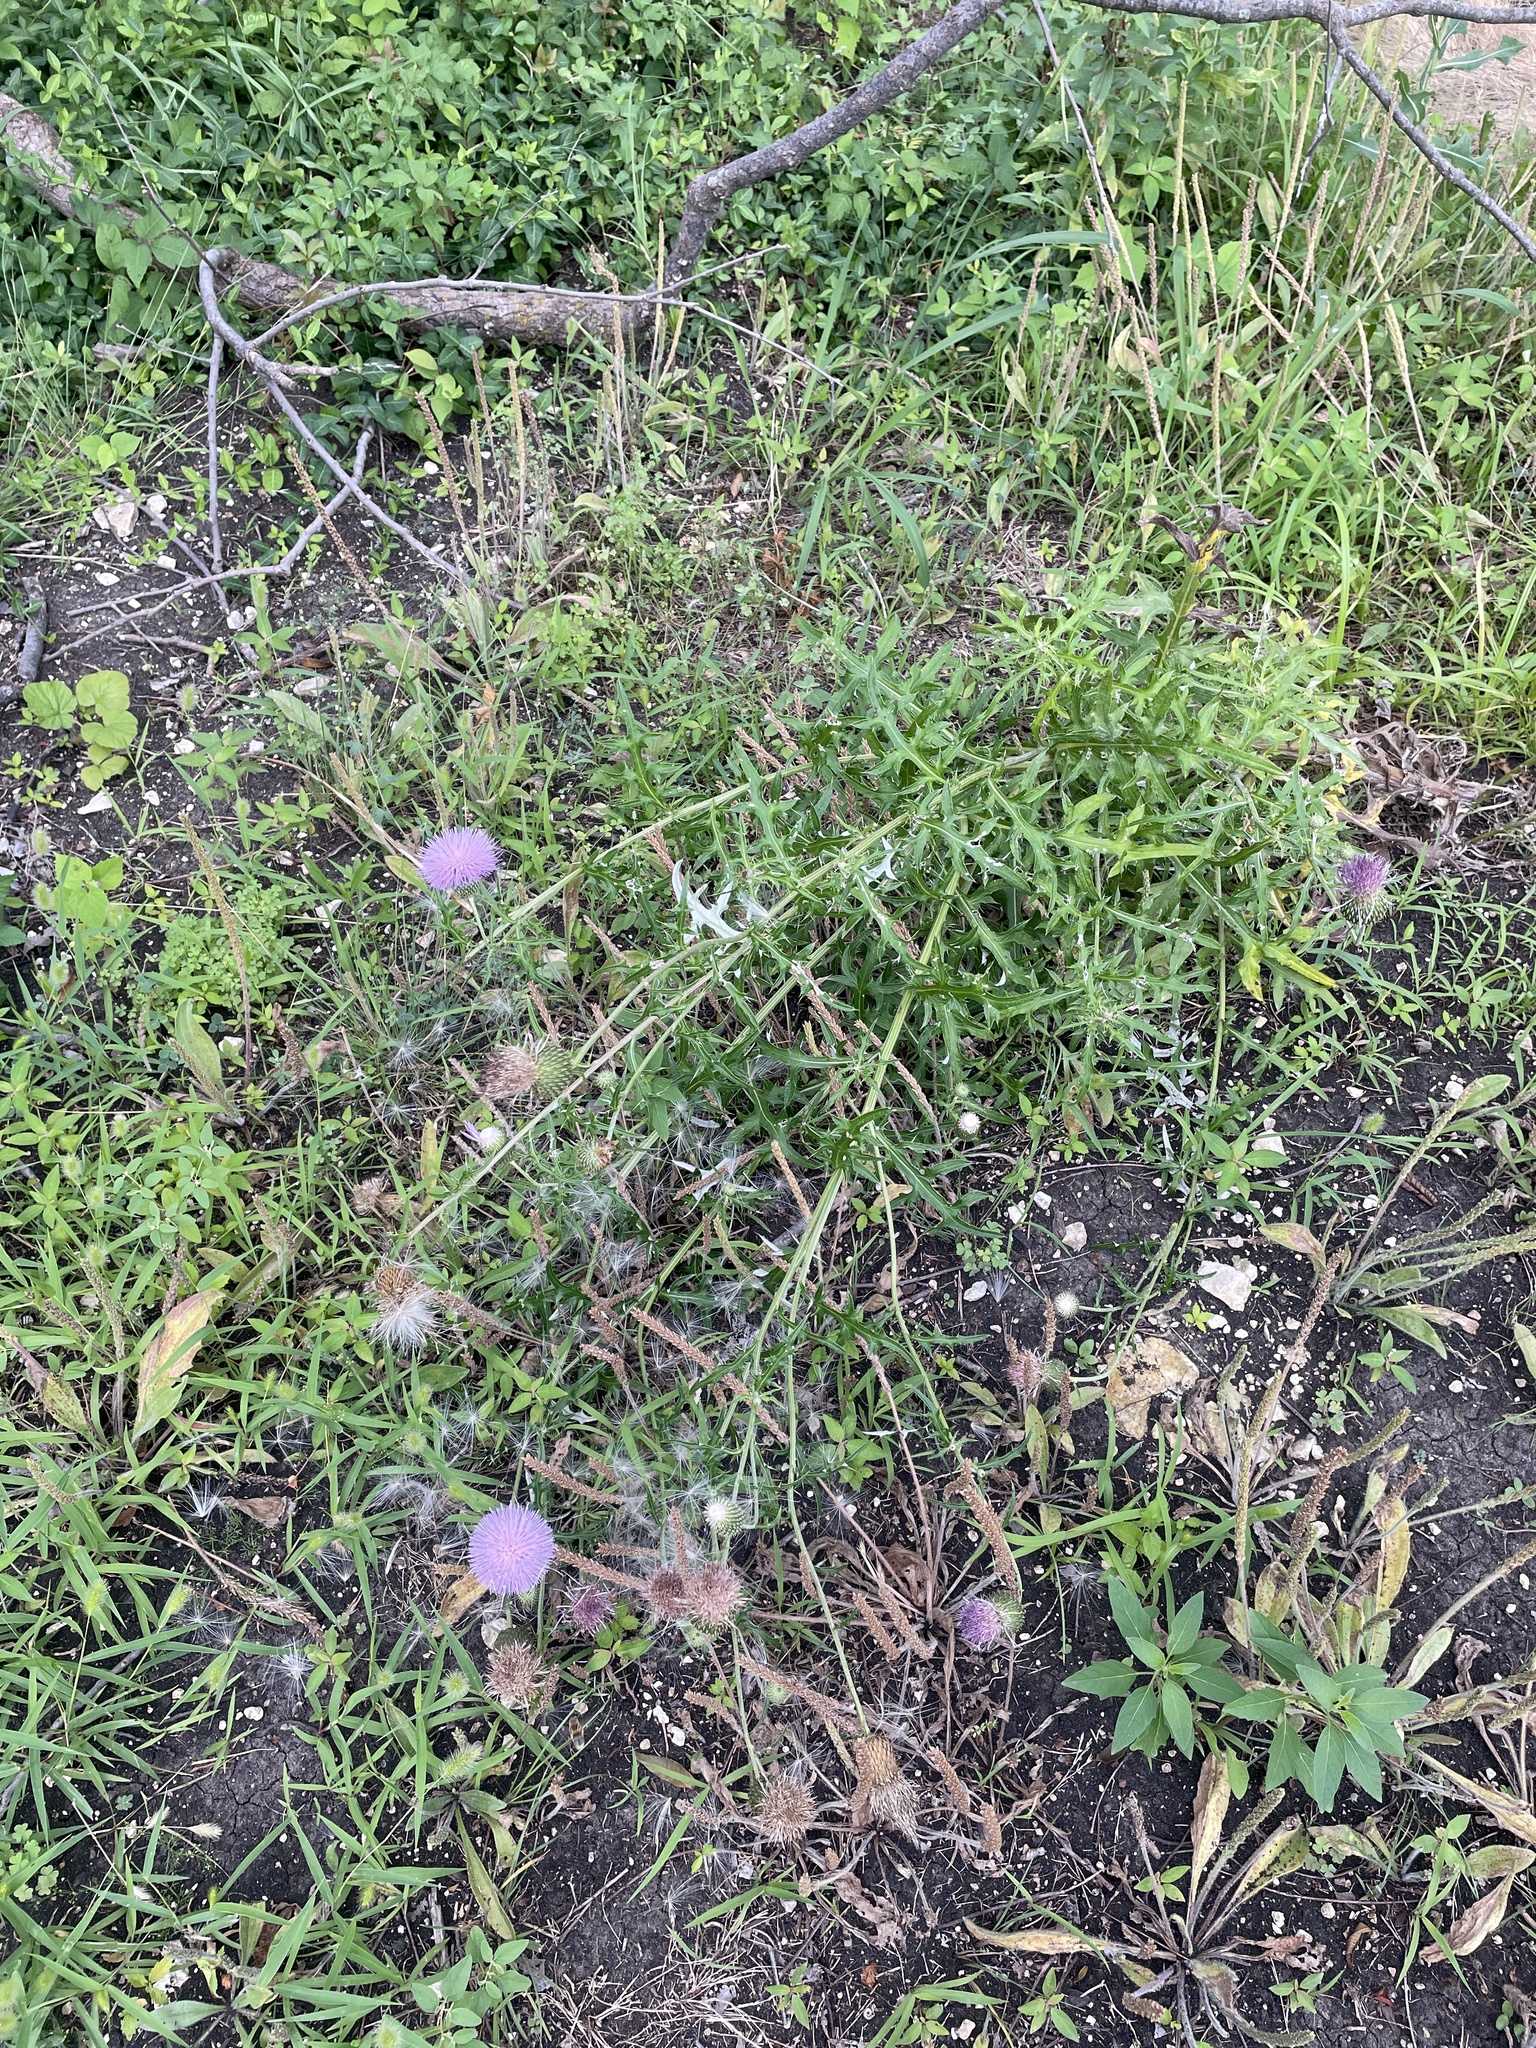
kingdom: Plantae
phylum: Tracheophyta
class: Magnoliopsida
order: Asterales
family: Asteraceae
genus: Cirsium
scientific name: Cirsium engelmannii
